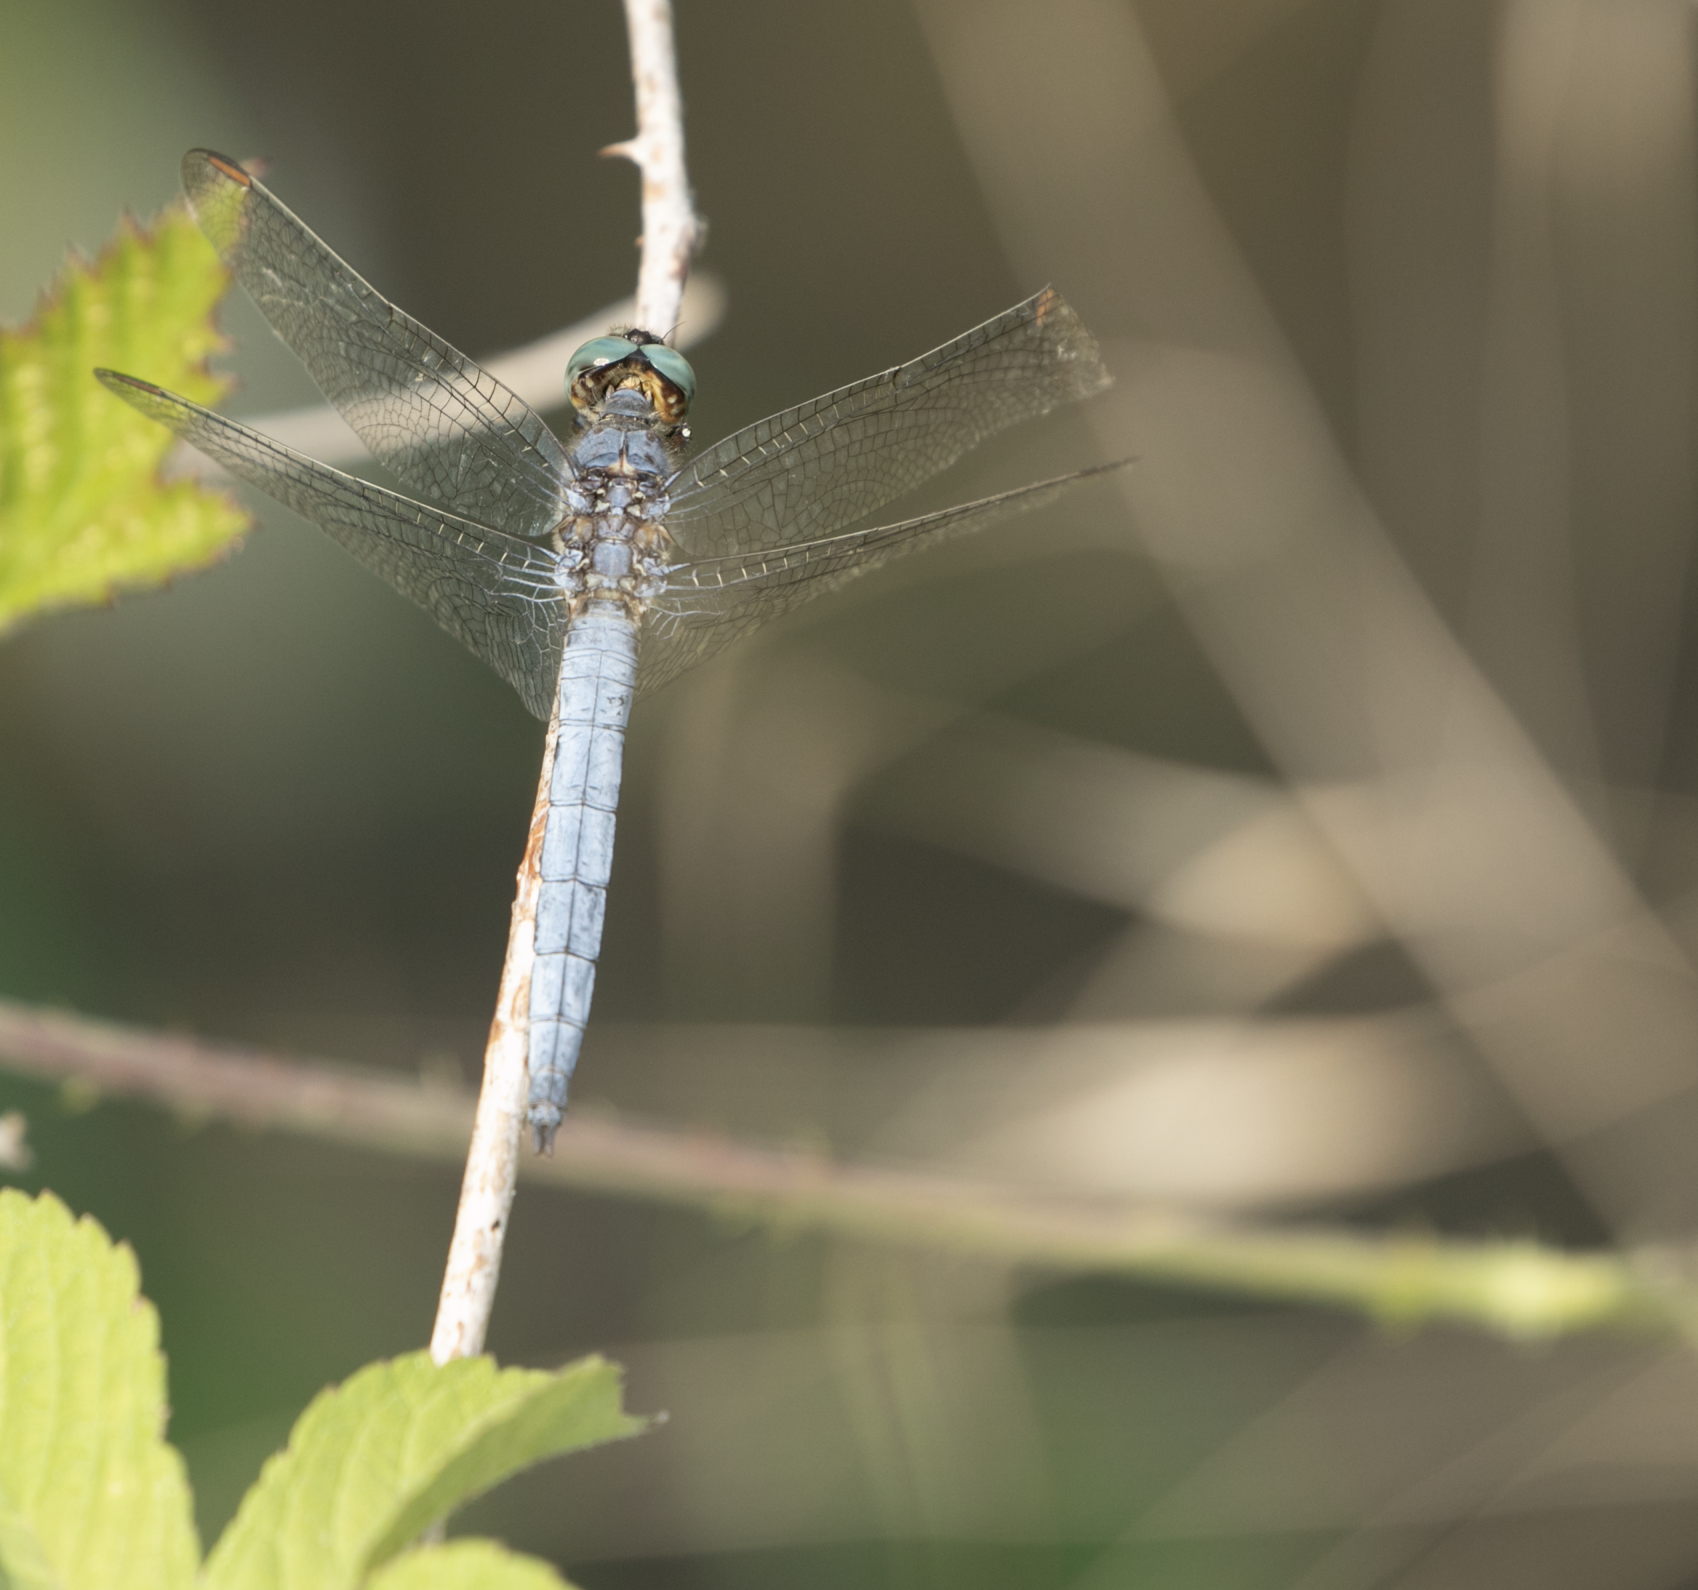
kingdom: Animalia
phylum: Arthropoda
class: Insecta
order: Odonata
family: Libellulidae
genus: Orthetrum
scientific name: Orthetrum coerulescens
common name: Keeled skimmer
